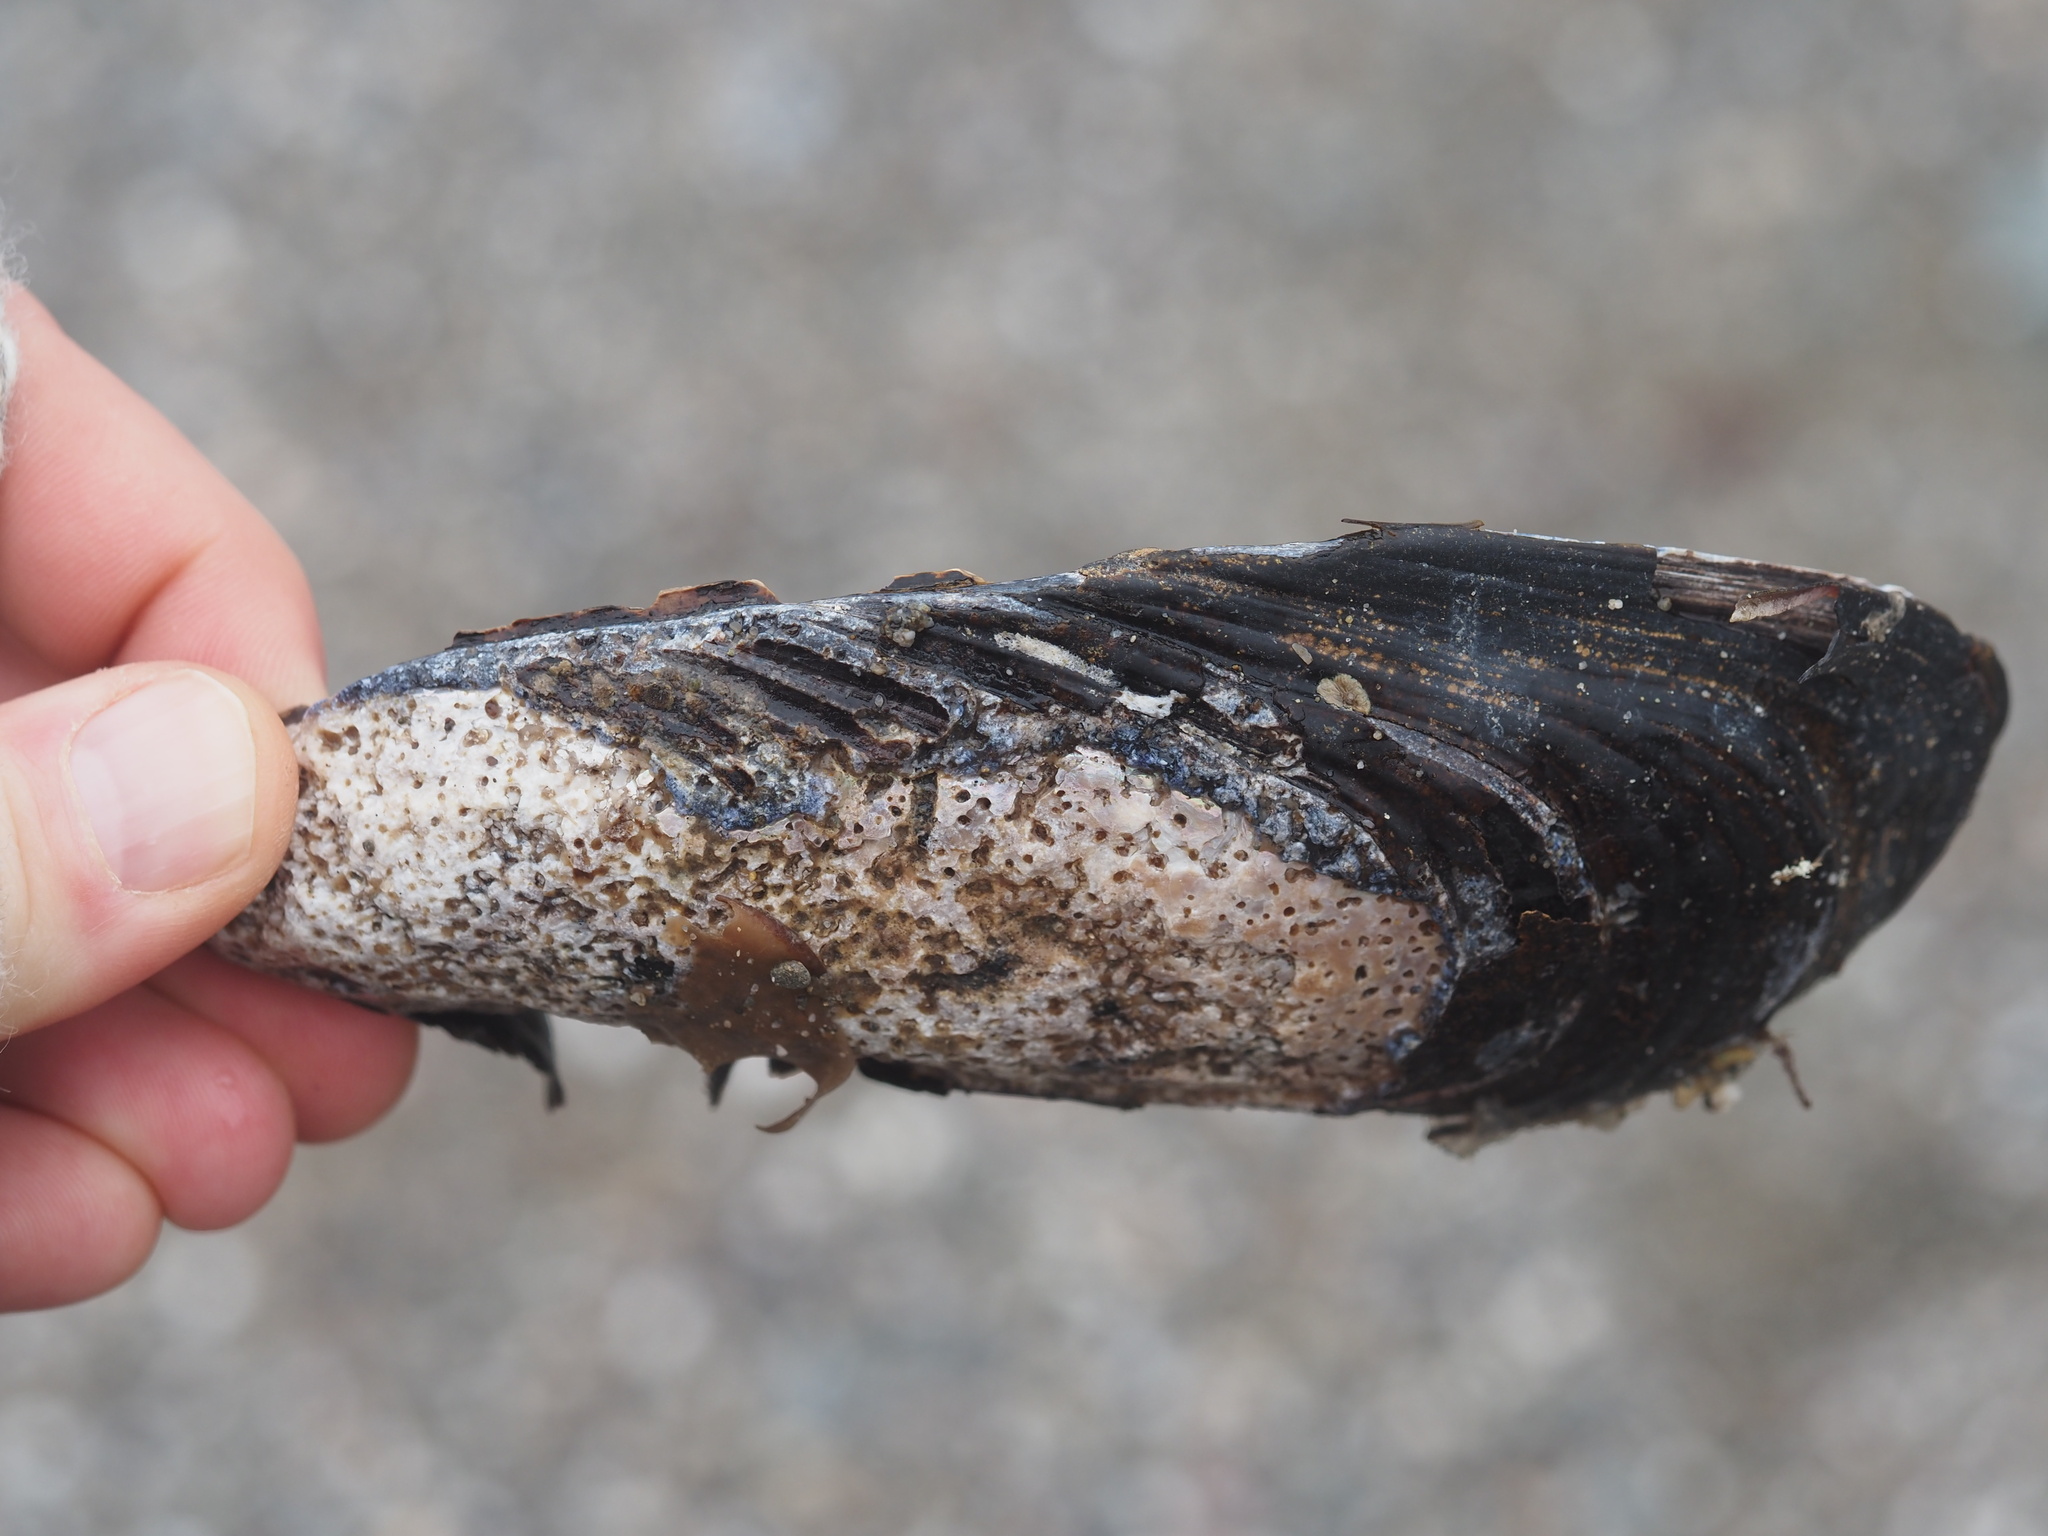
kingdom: Animalia
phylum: Mollusca
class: Bivalvia
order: Mytilida
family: Mytilidae
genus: Mytilus
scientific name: Mytilus californianus
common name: California mussel
